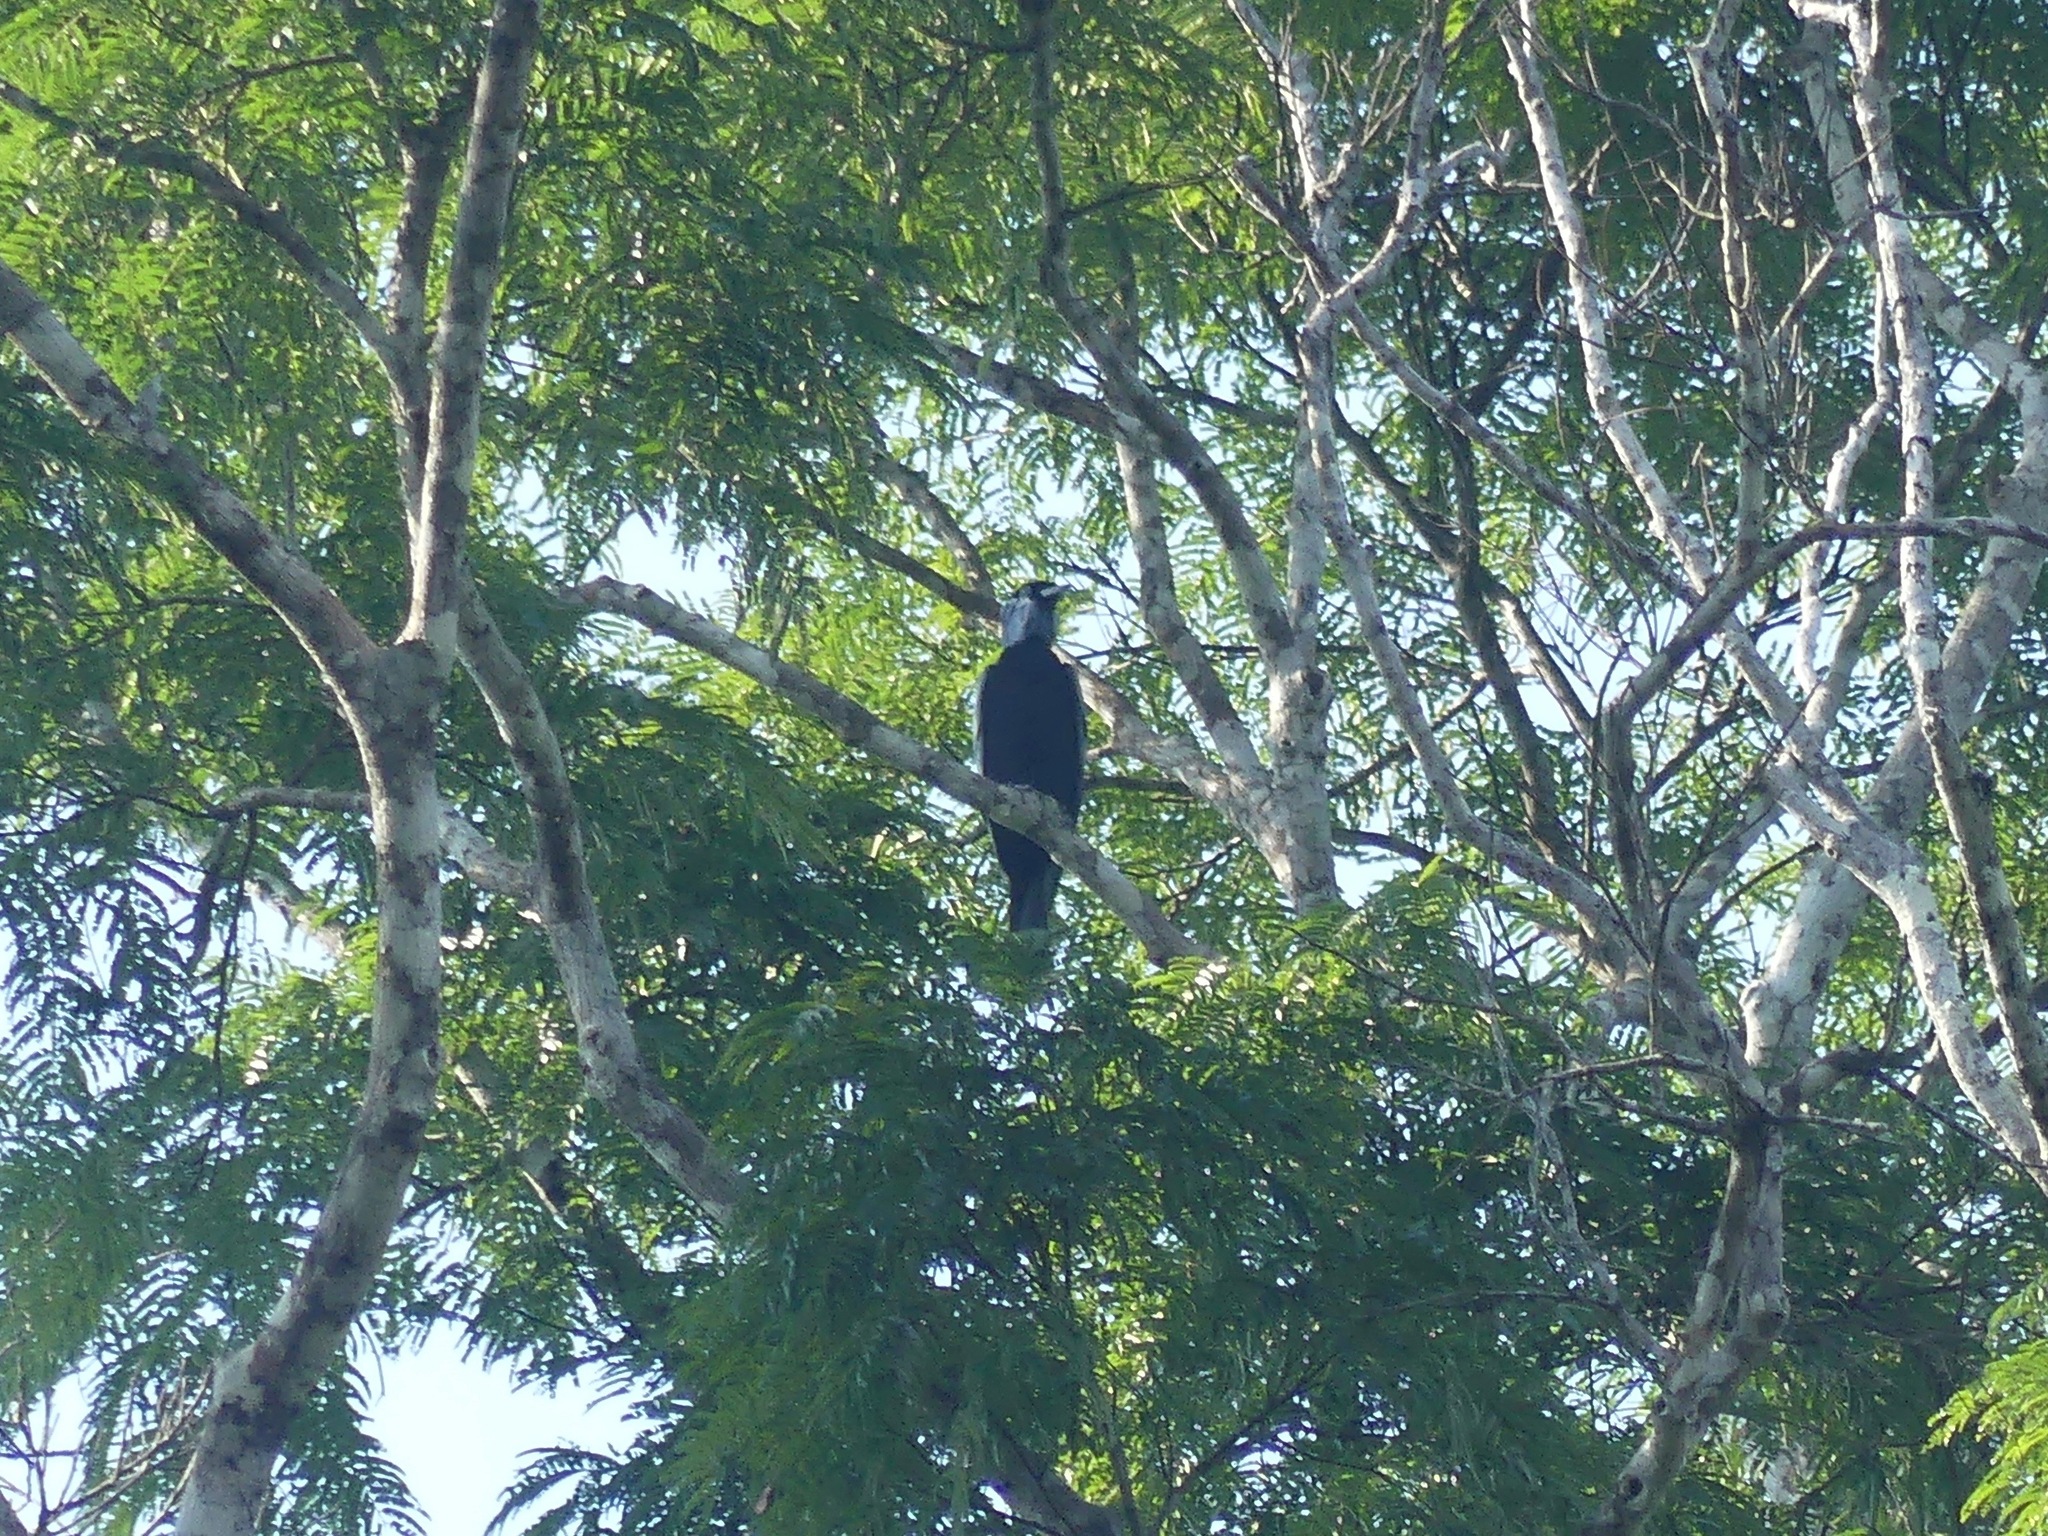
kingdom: Animalia
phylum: Chordata
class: Aves
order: Passeriformes
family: Cotingidae
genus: Gymnoderus
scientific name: Gymnoderus foetidus
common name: Bare-necked fruitcrow
